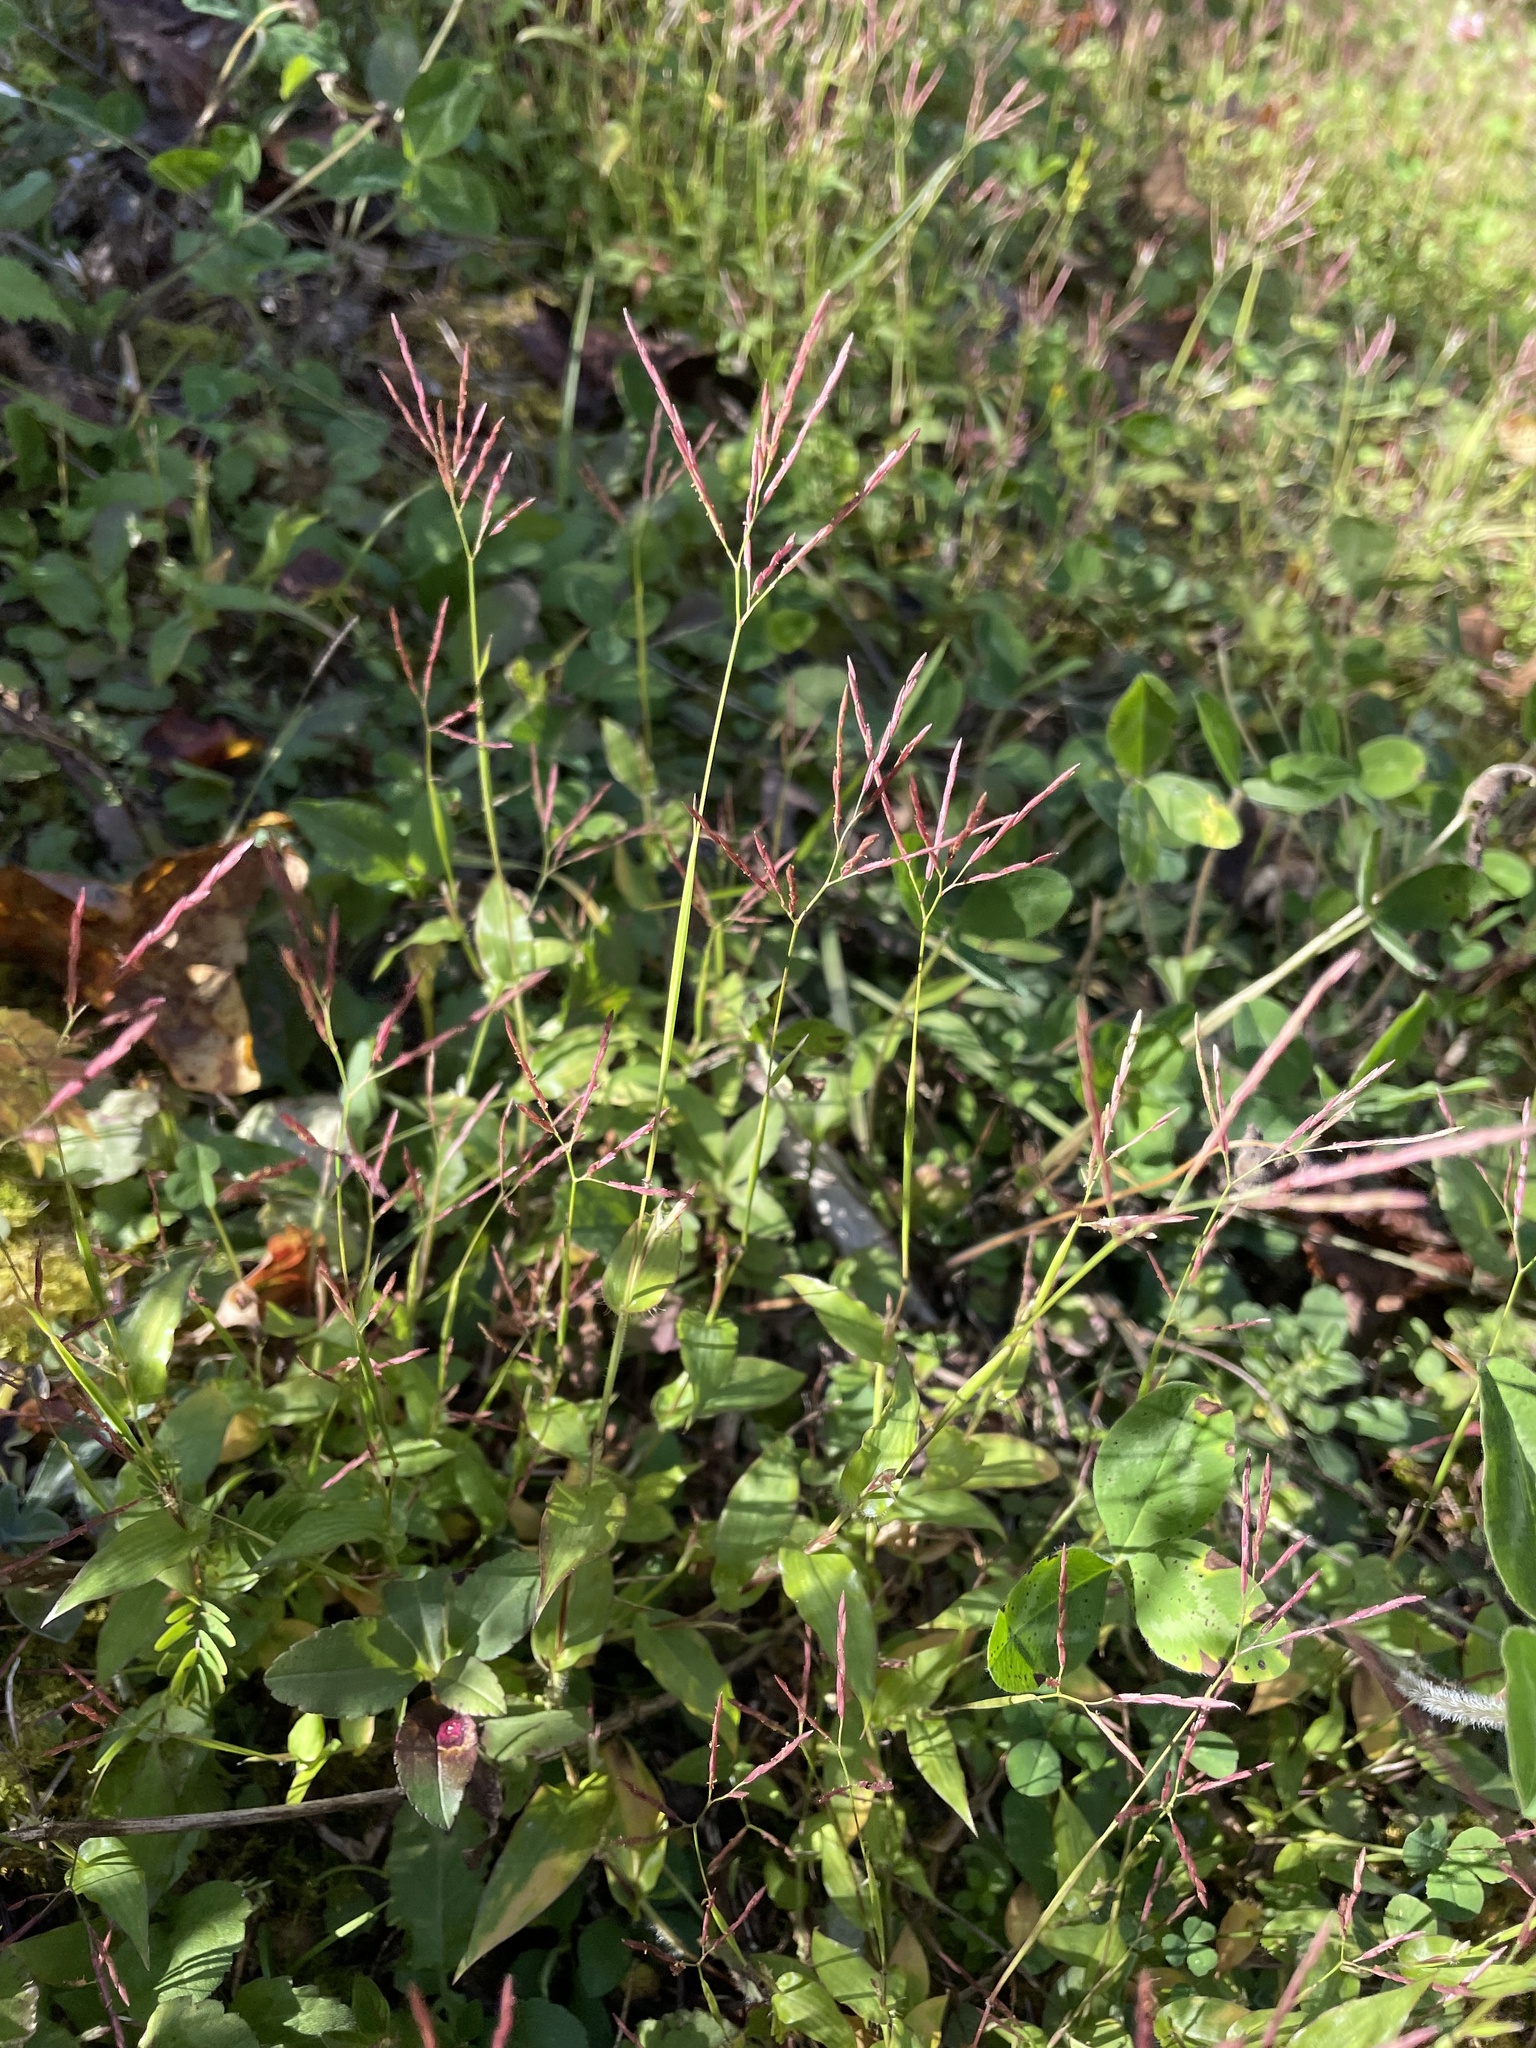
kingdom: Plantae
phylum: Tracheophyta
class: Liliopsida
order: Poales
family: Poaceae
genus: Arthraxon
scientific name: Arthraxon hispidus
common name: Small carpgrass
